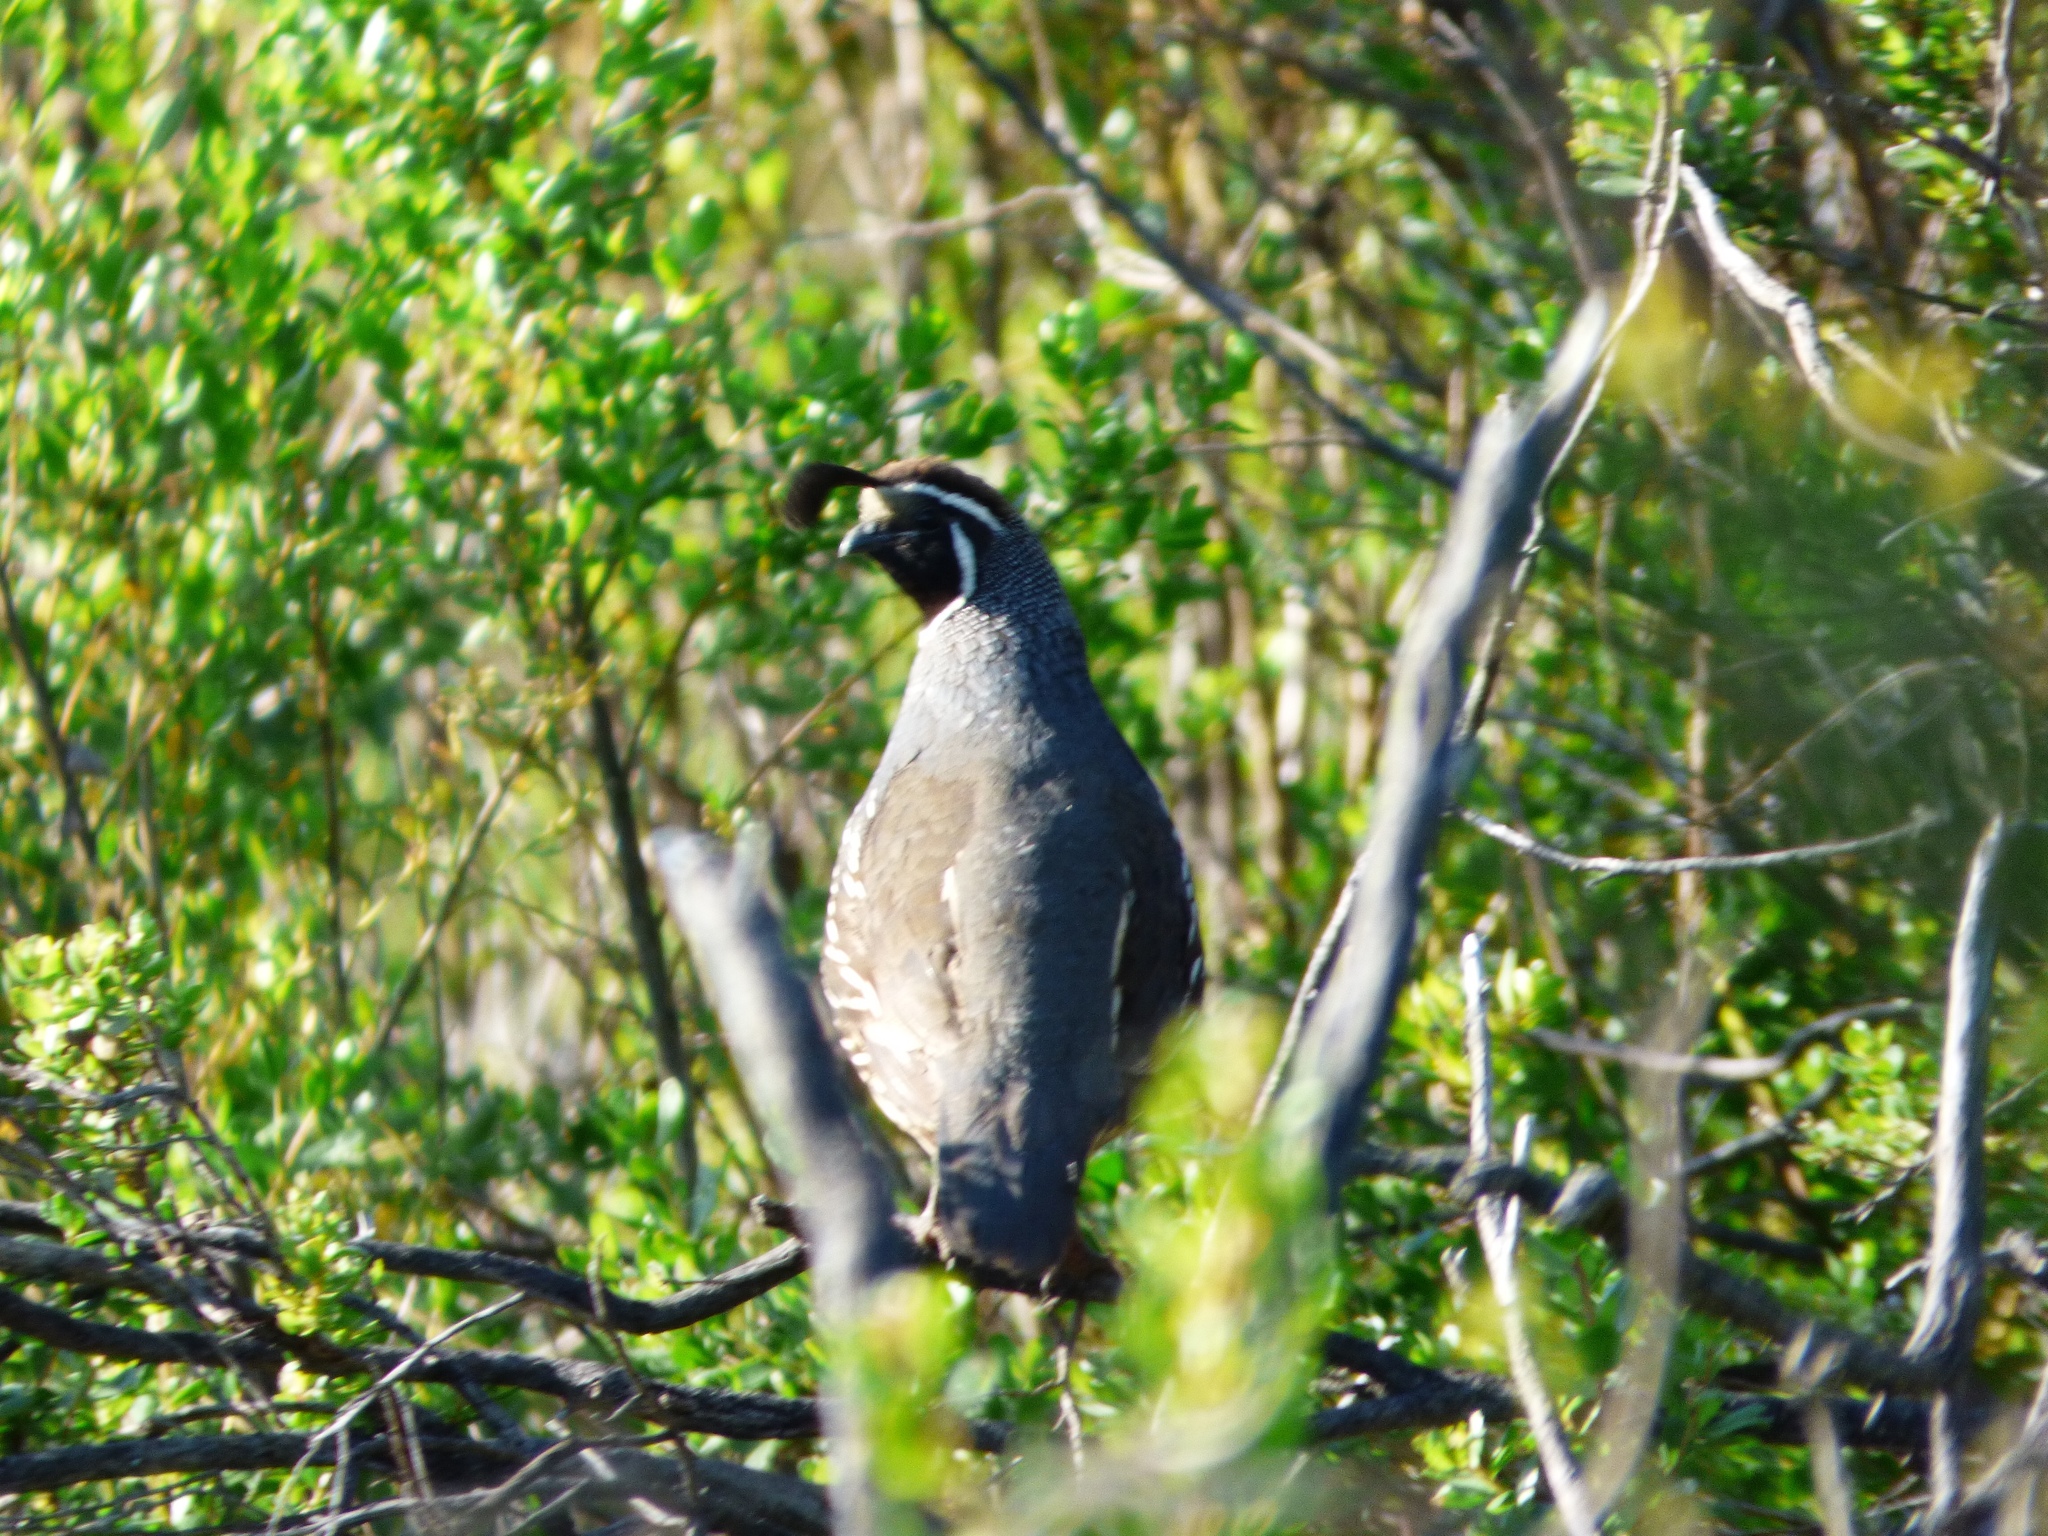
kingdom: Animalia
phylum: Chordata
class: Aves
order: Galliformes
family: Odontophoridae
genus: Callipepla
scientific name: Callipepla californica
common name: California quail
